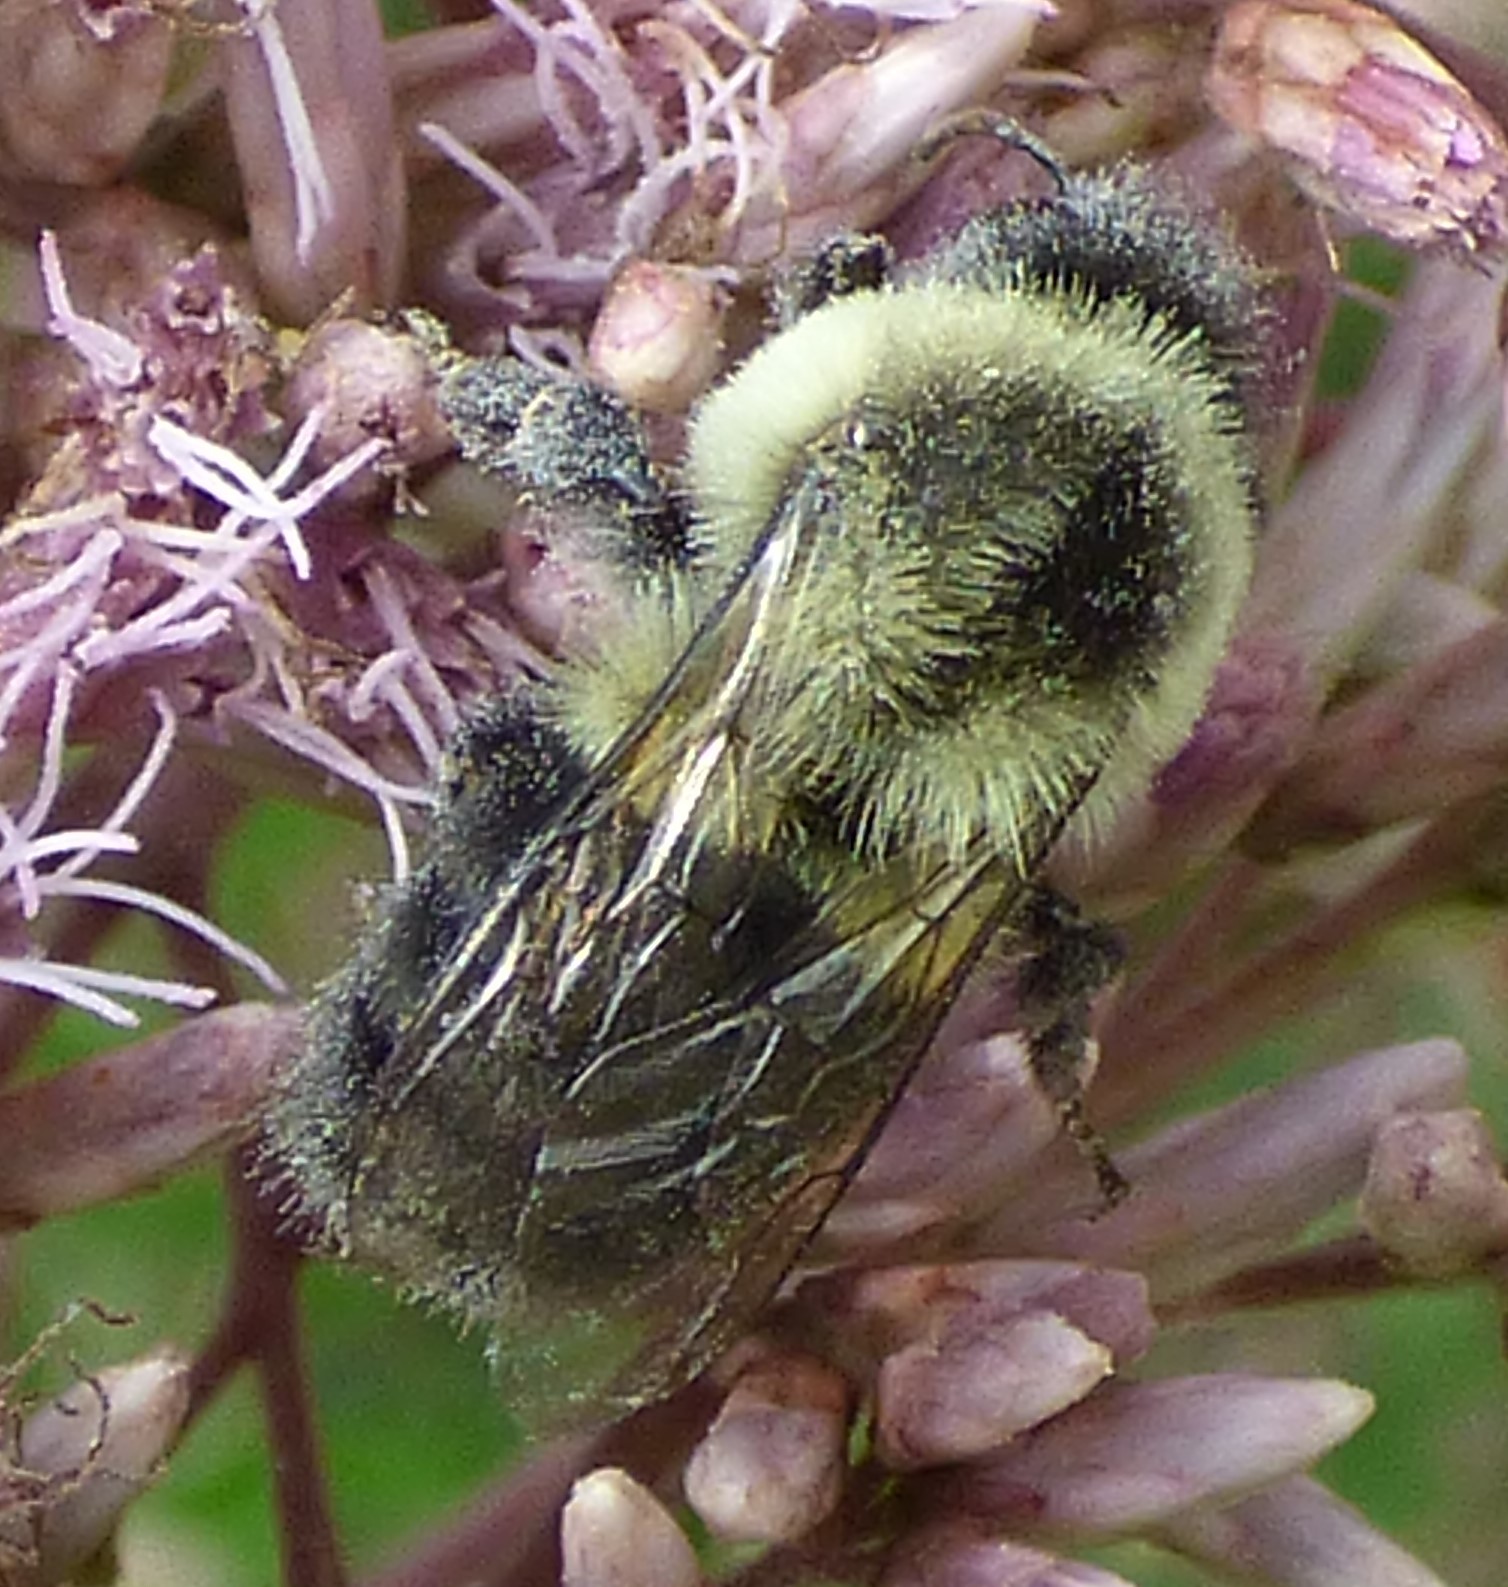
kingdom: Animalia
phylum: Arthropoda
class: Insecta
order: Hymenoptera
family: Apidae
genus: Bombus
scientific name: Bombus impatiens
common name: Common eastern bumble bee
